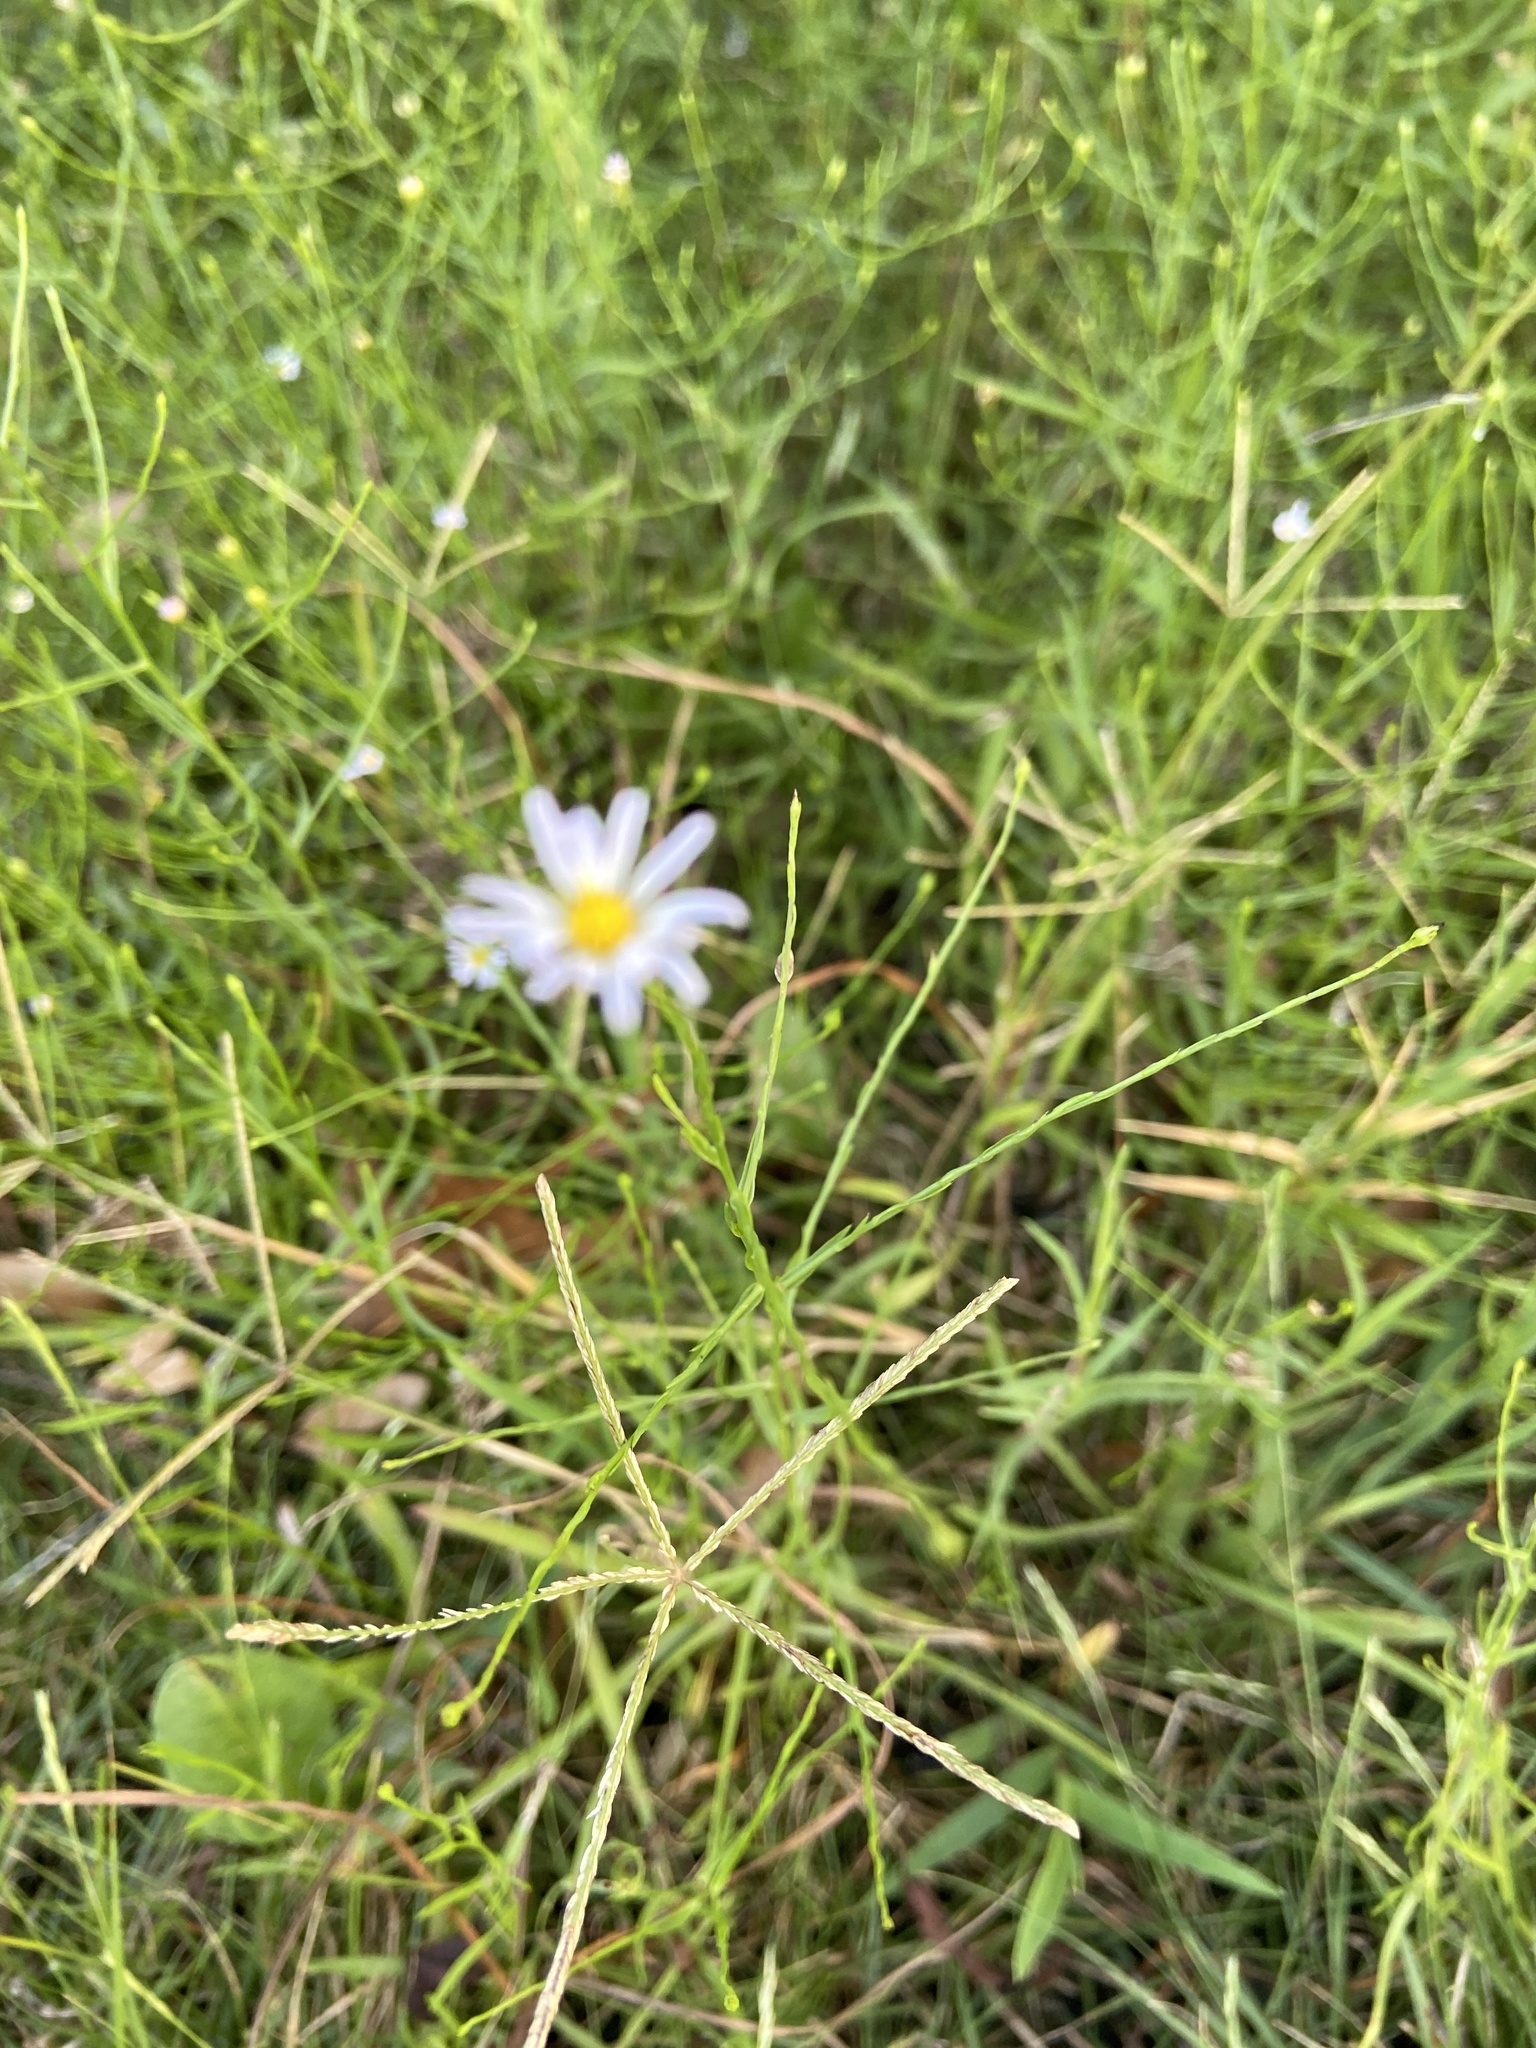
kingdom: Plantae
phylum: Tracheophyta
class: Magnoliopsida
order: Asterales
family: Asteraceae
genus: Symphyotrichum
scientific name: Symphyotrichum divaricatum
